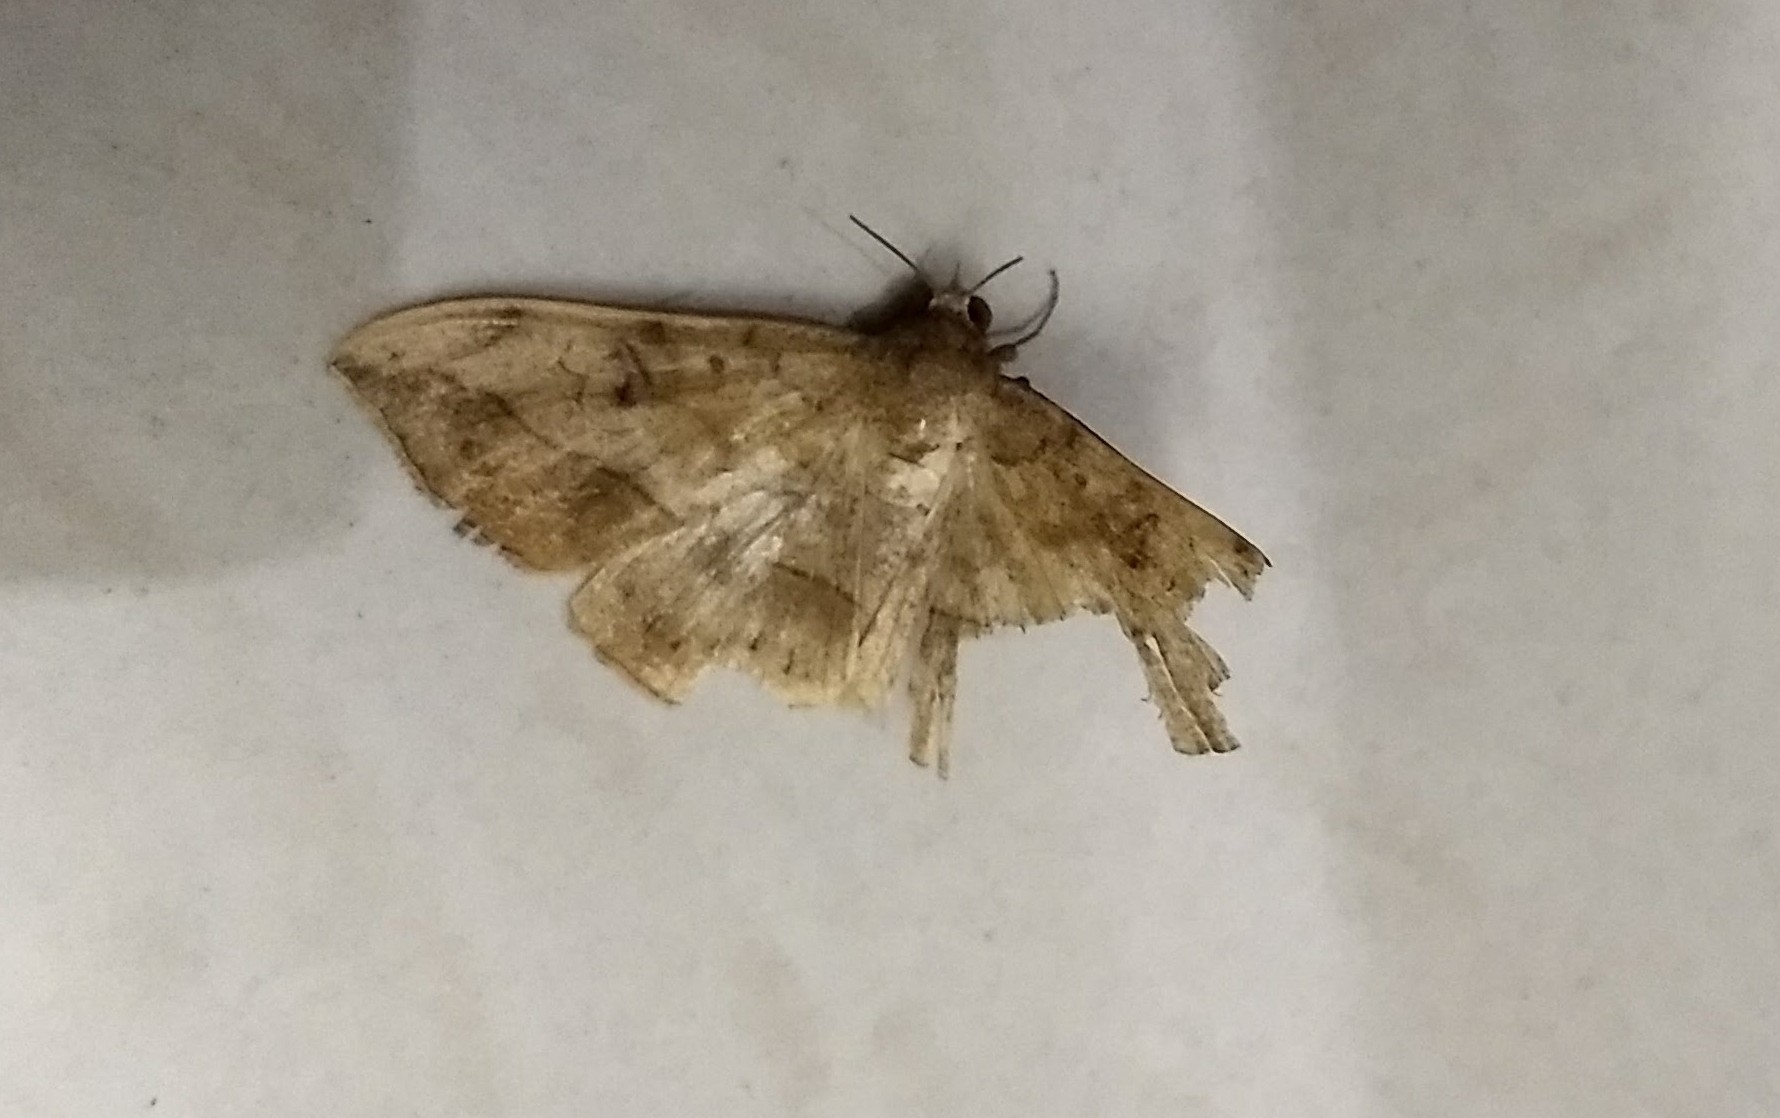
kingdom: Animalia
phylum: Arthropoda
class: Insecta
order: Lepidoptera
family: Erebidae
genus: Anticarsia
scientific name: Anticarsia irrorata
